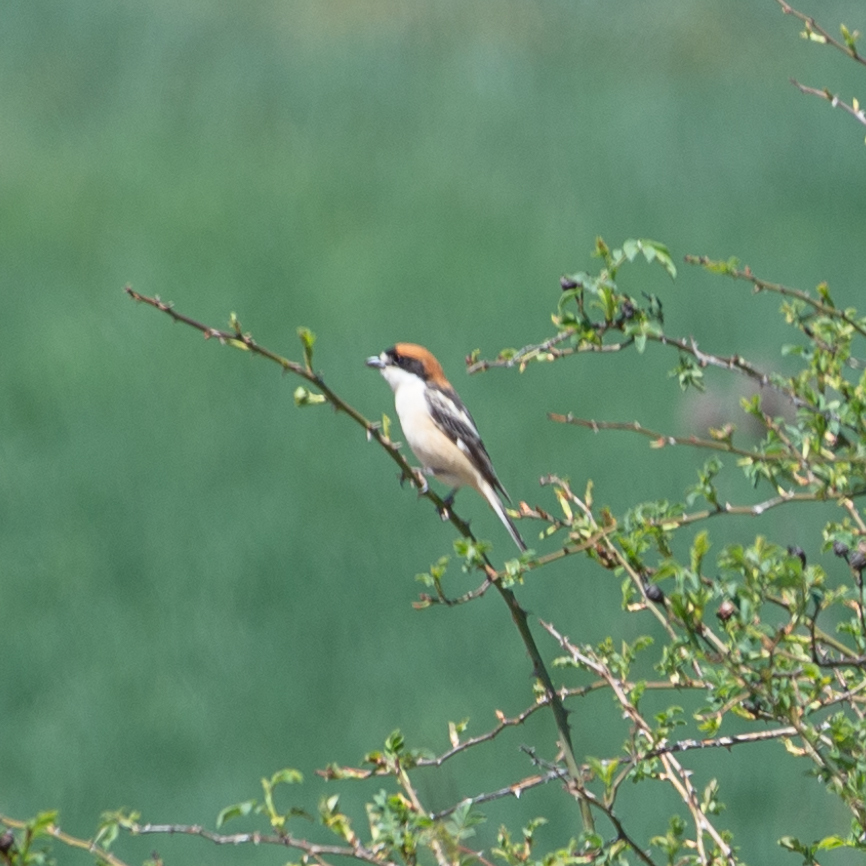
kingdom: Animalia
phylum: Chordata
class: Aves
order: Passeriformes
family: Laniidae
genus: Lanius
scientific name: Lanius senator
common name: Woodchat shrike
